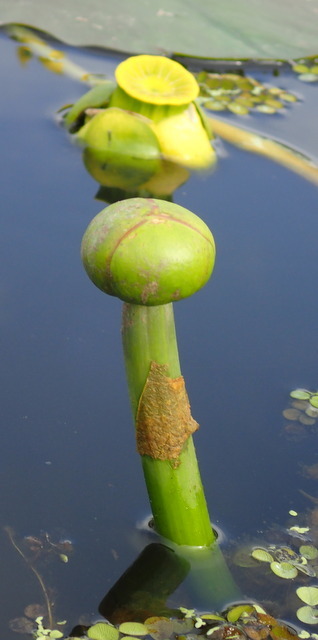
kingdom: Plantae
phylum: Tracheophyta
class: Magnoliopsida
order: Nymphaeales
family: Nymphaeaceae
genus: Nuphar
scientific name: Nuphar advena
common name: Spatter-dock
